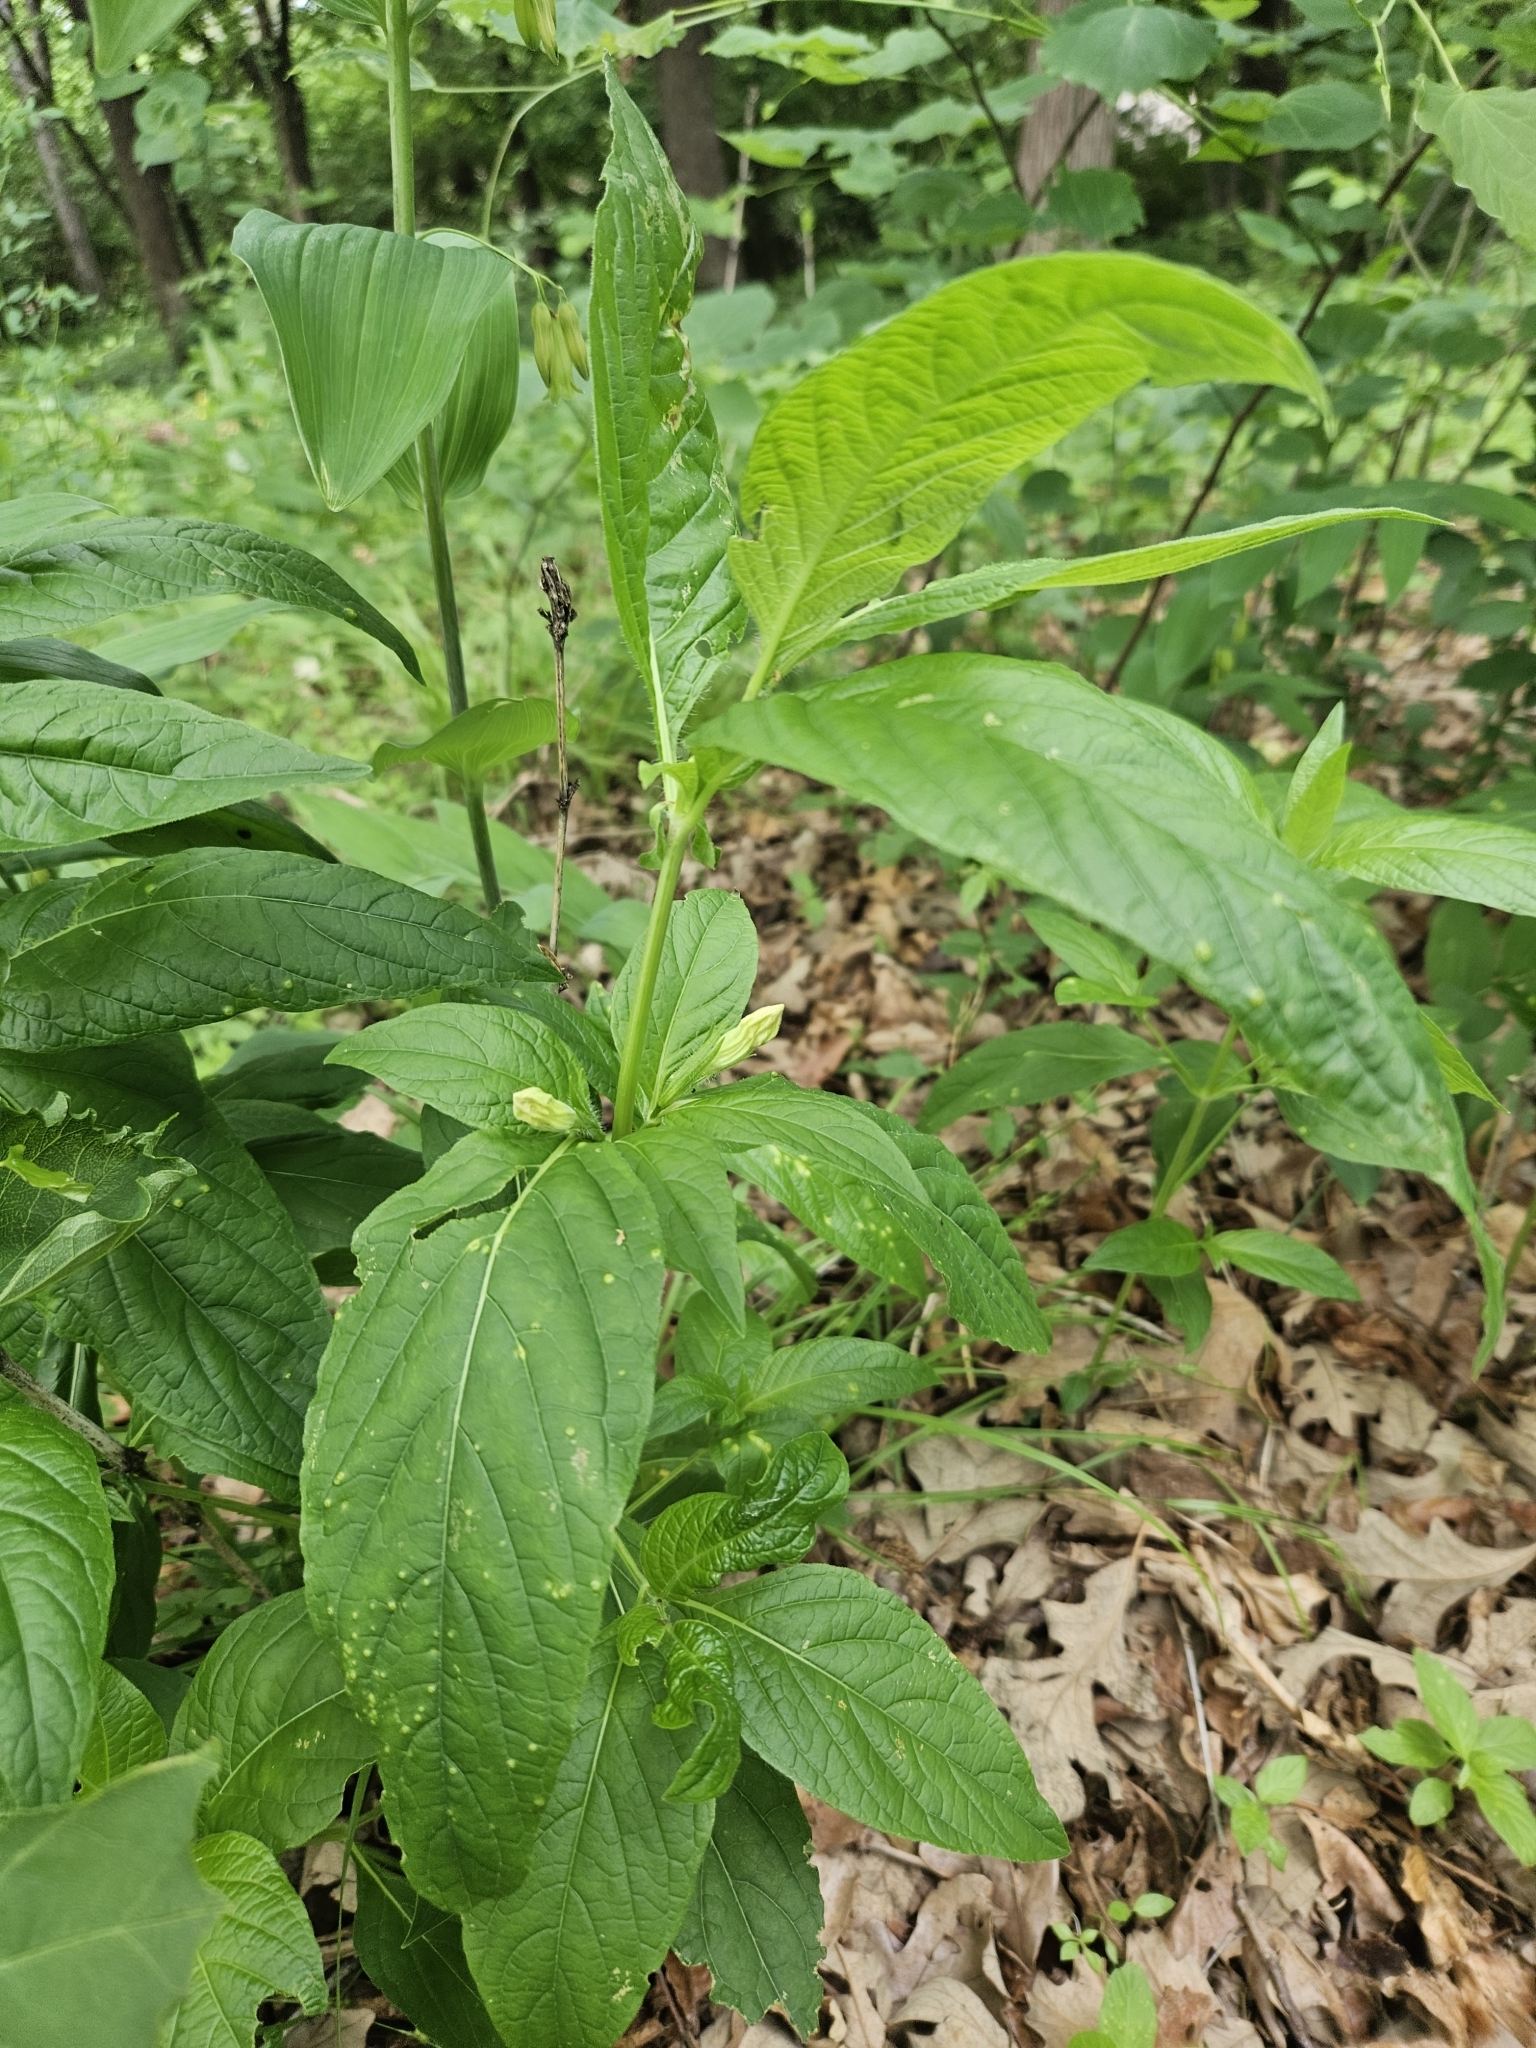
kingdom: Plantae
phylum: Tracheophyta
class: Magnoliopsida
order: Lamiales
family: Acanthaceae
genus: Ruellia
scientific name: Ruellia strepens
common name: Limestone wild petunia
